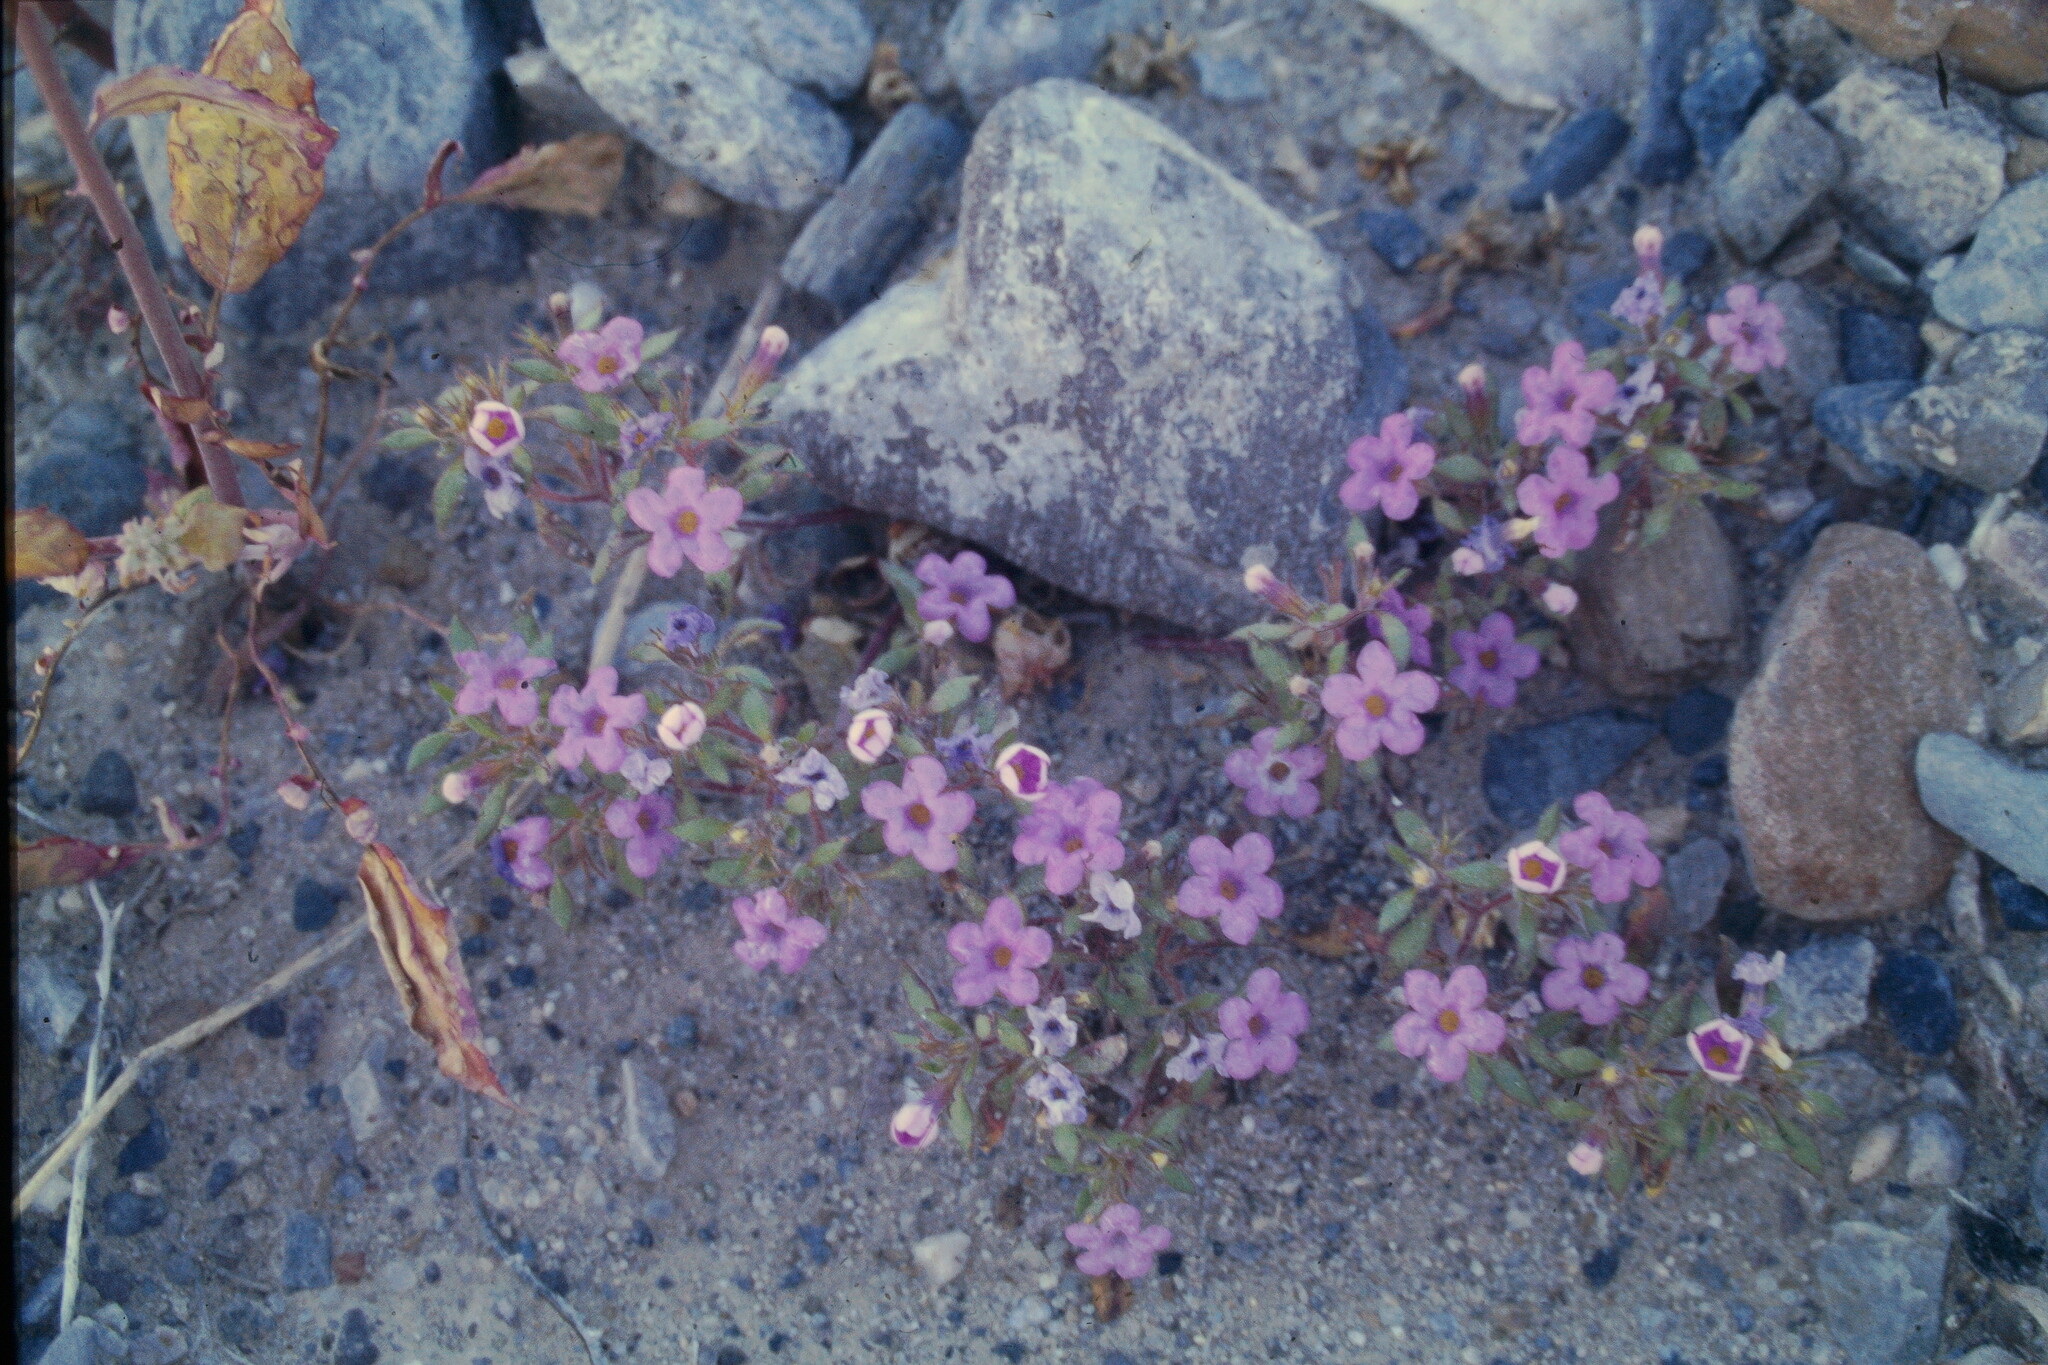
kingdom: Plantae
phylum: Tracheophyta
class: Magnoliopsida
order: Boraginales
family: Namaceae
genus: Nama
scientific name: Nama demissa
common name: Leafy nama
